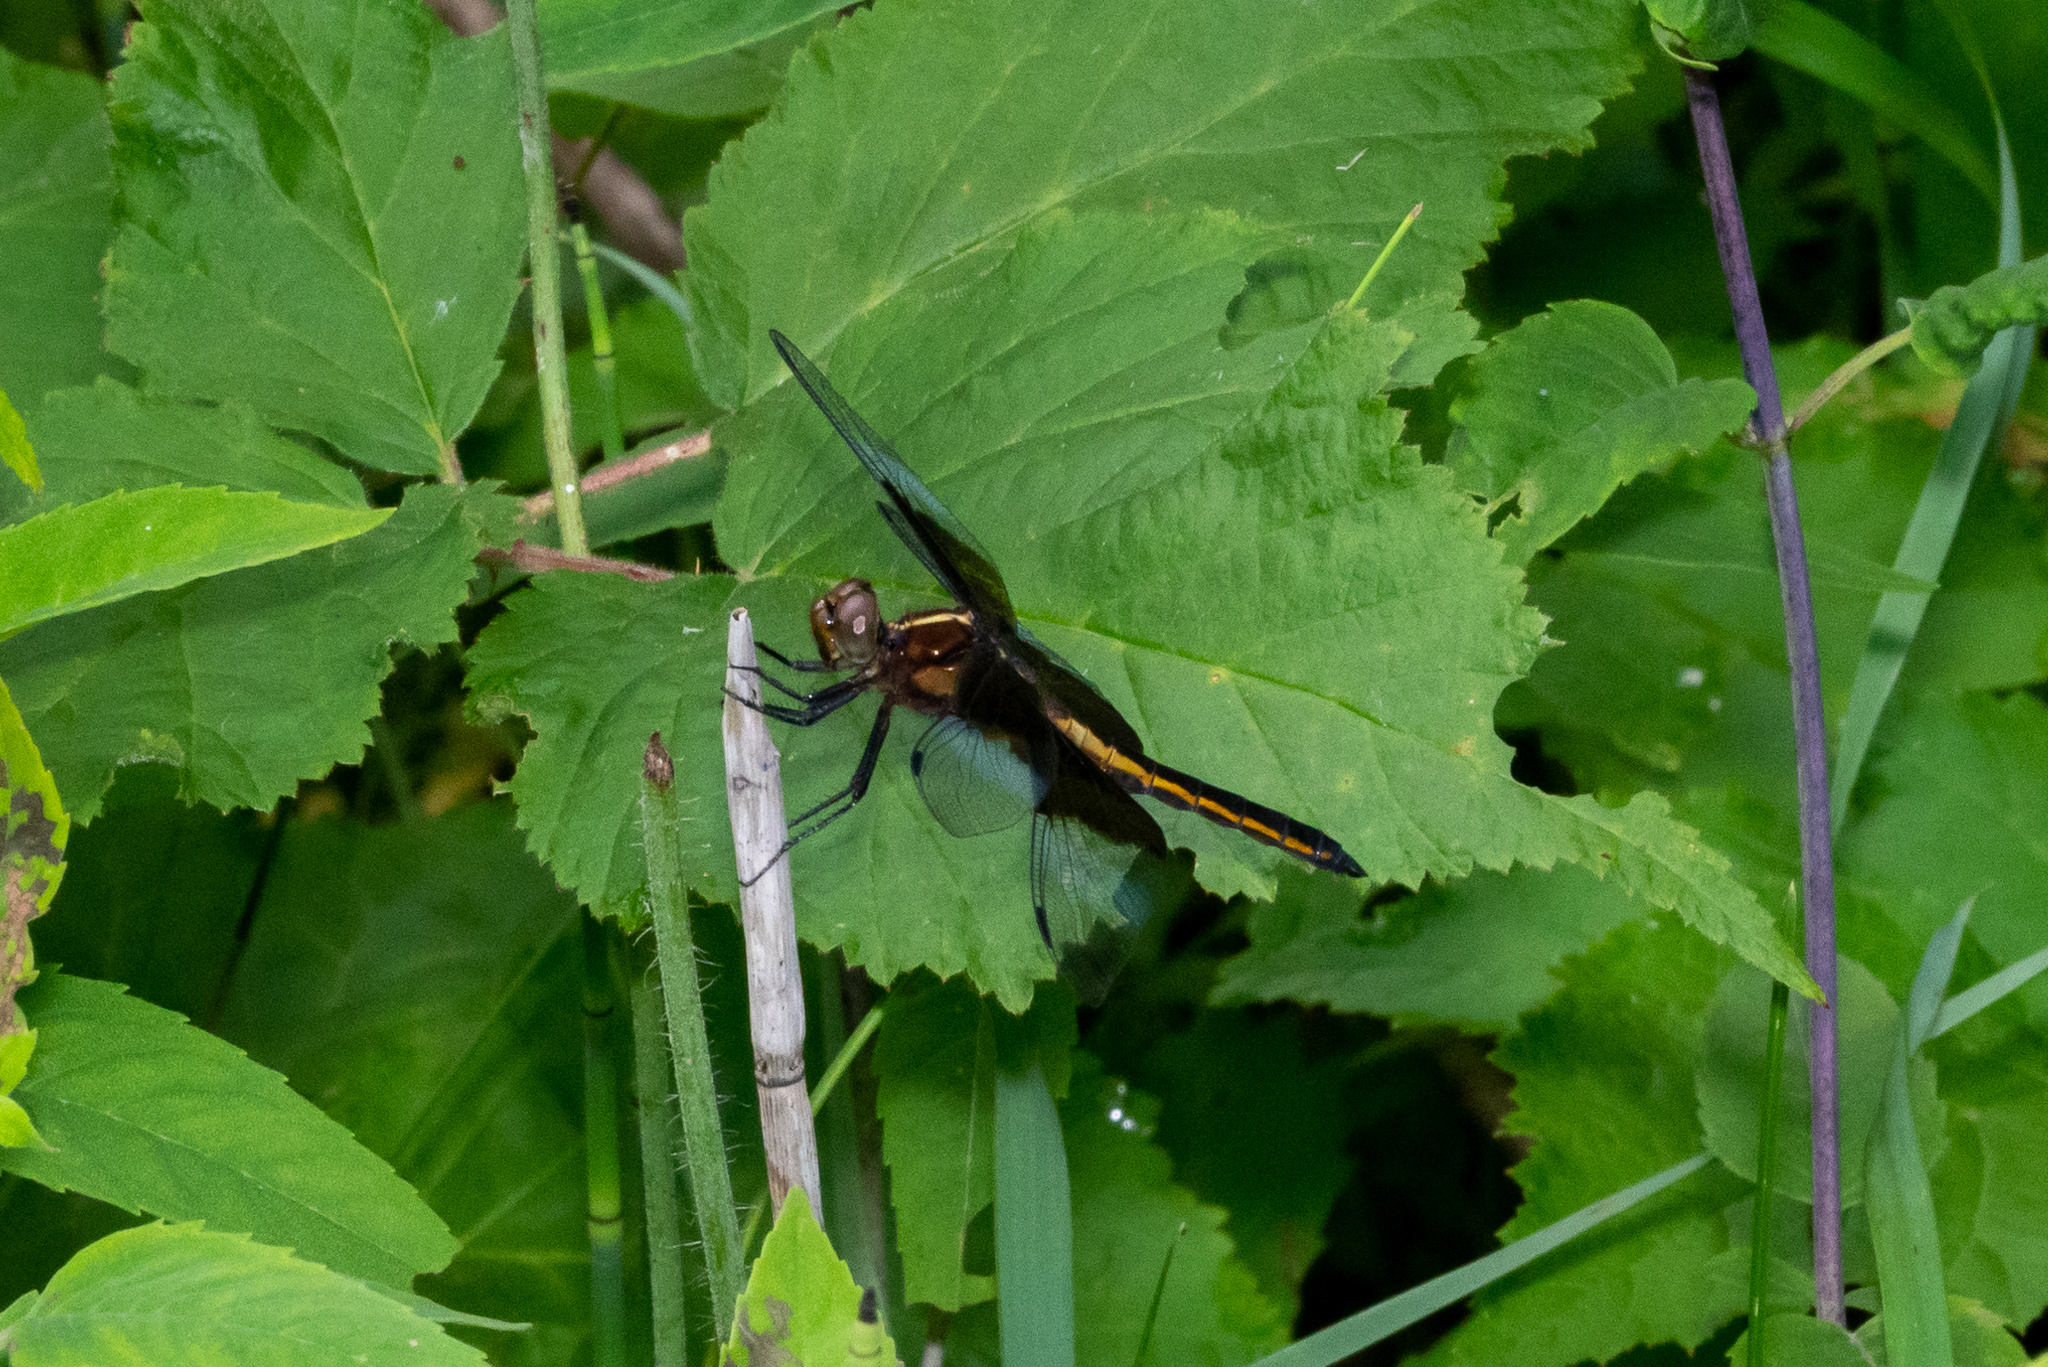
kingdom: Animalia
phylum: Arthropoda
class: Insecta
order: Odonata
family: Libellulidae
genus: Libellula
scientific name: Libellula luctuosa
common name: Widow skimmer
